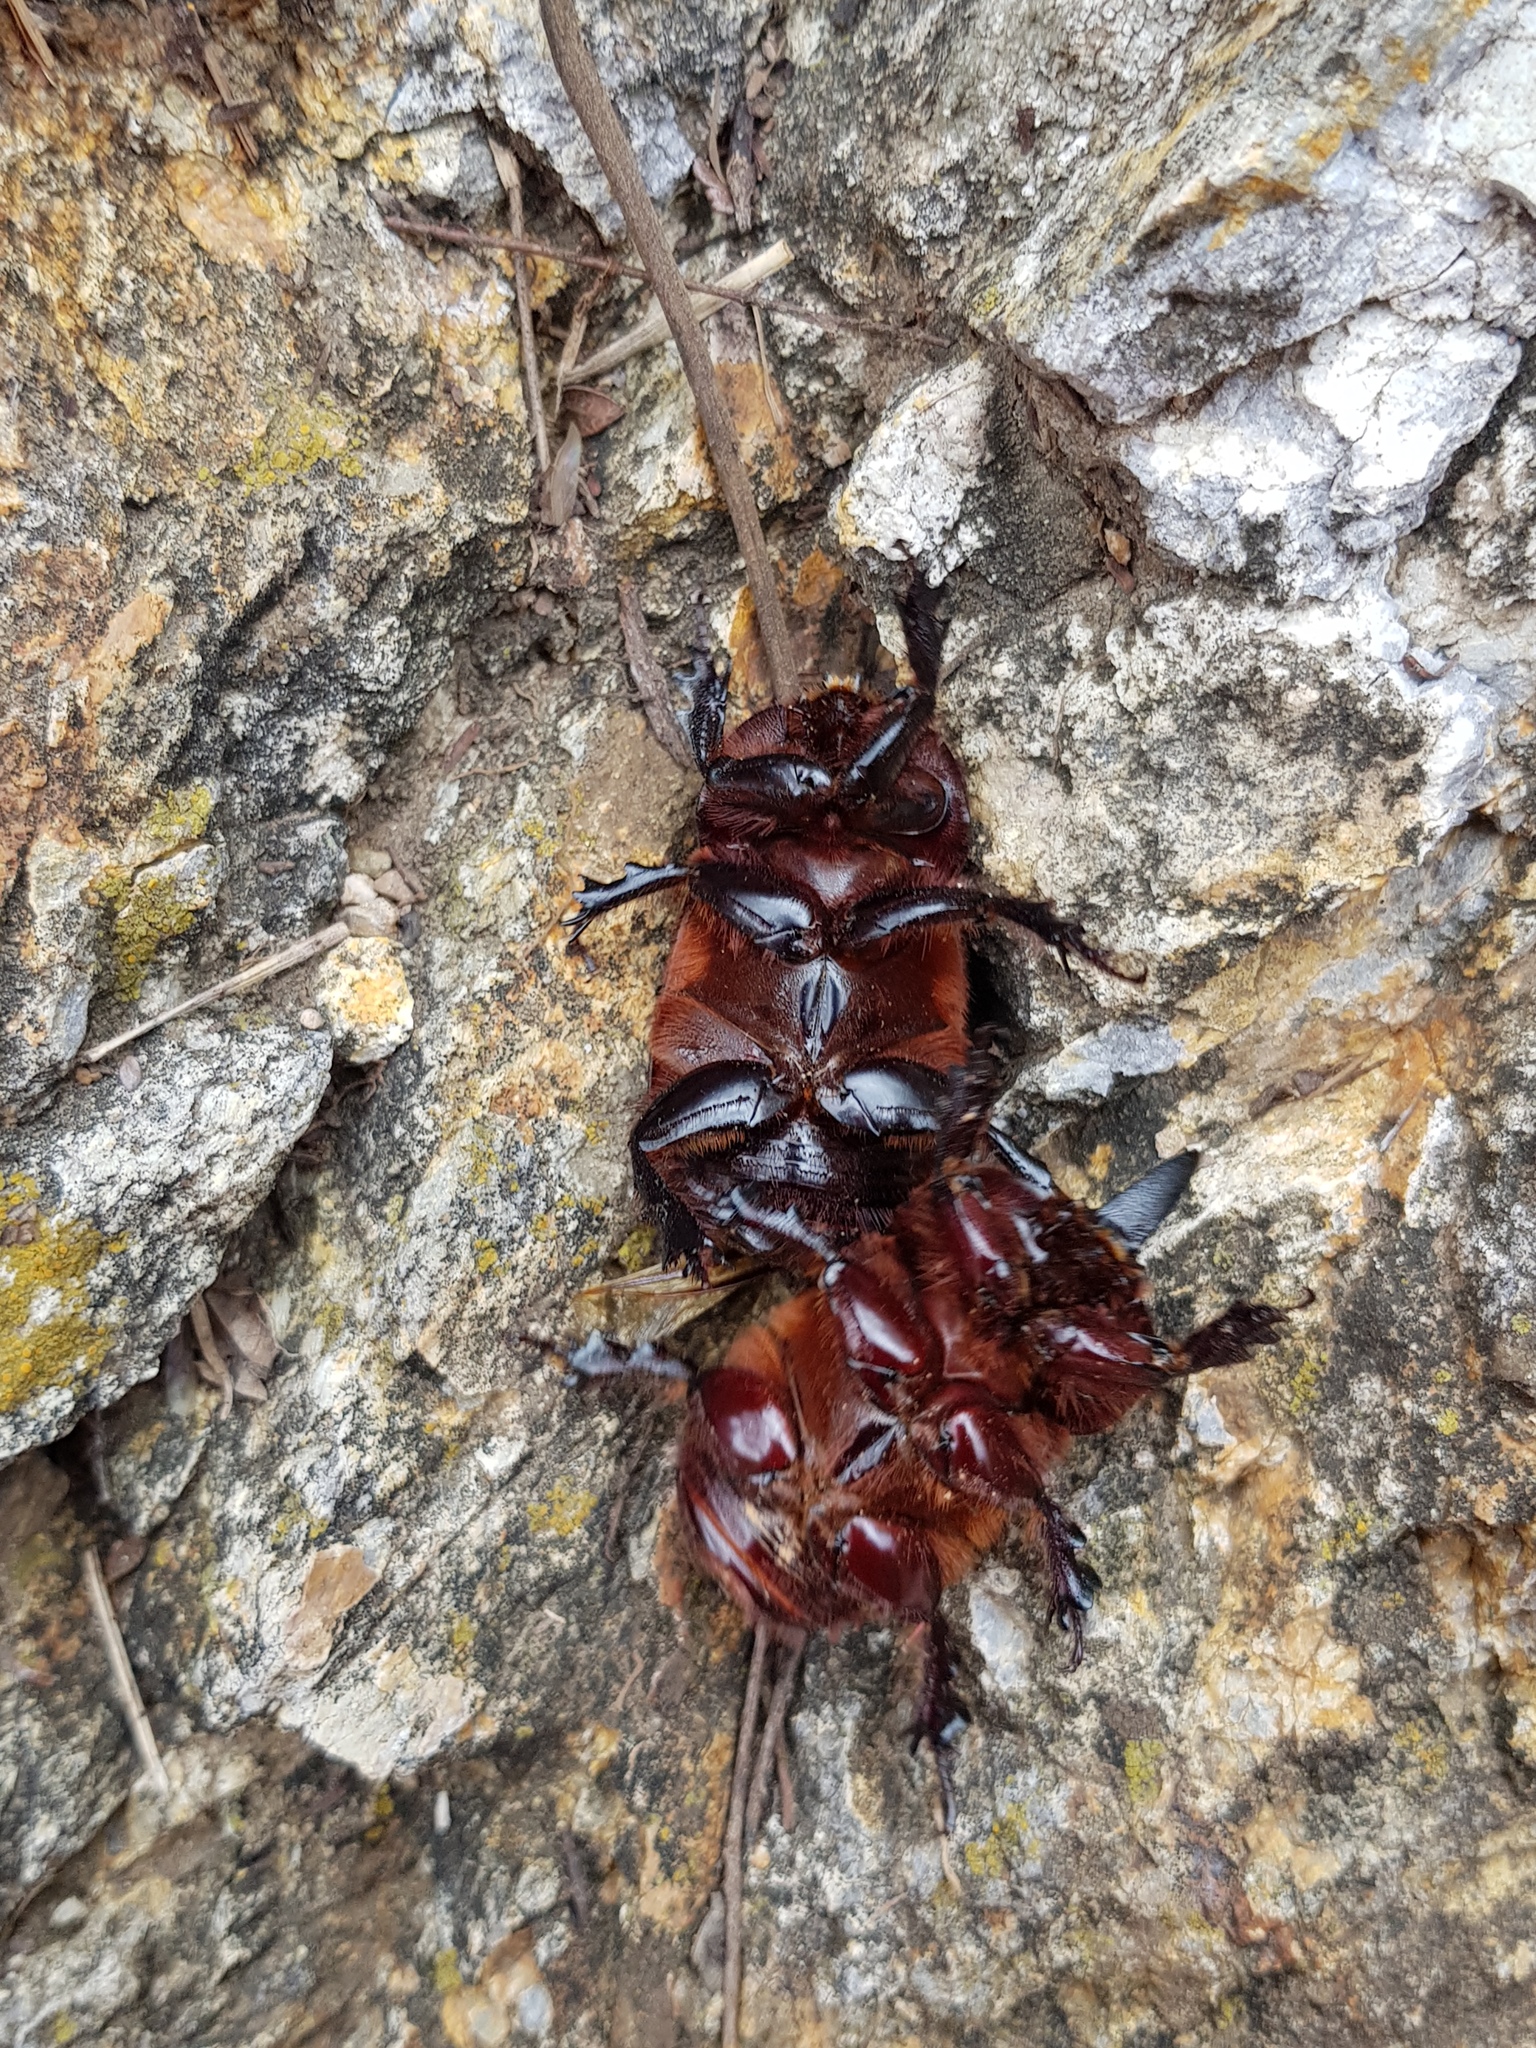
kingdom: Animalia
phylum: Arthropoda
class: Insecta
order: Coleoptera
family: Scarabaeidae
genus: Xyloryctes
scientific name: Xyloryctes thestalus
